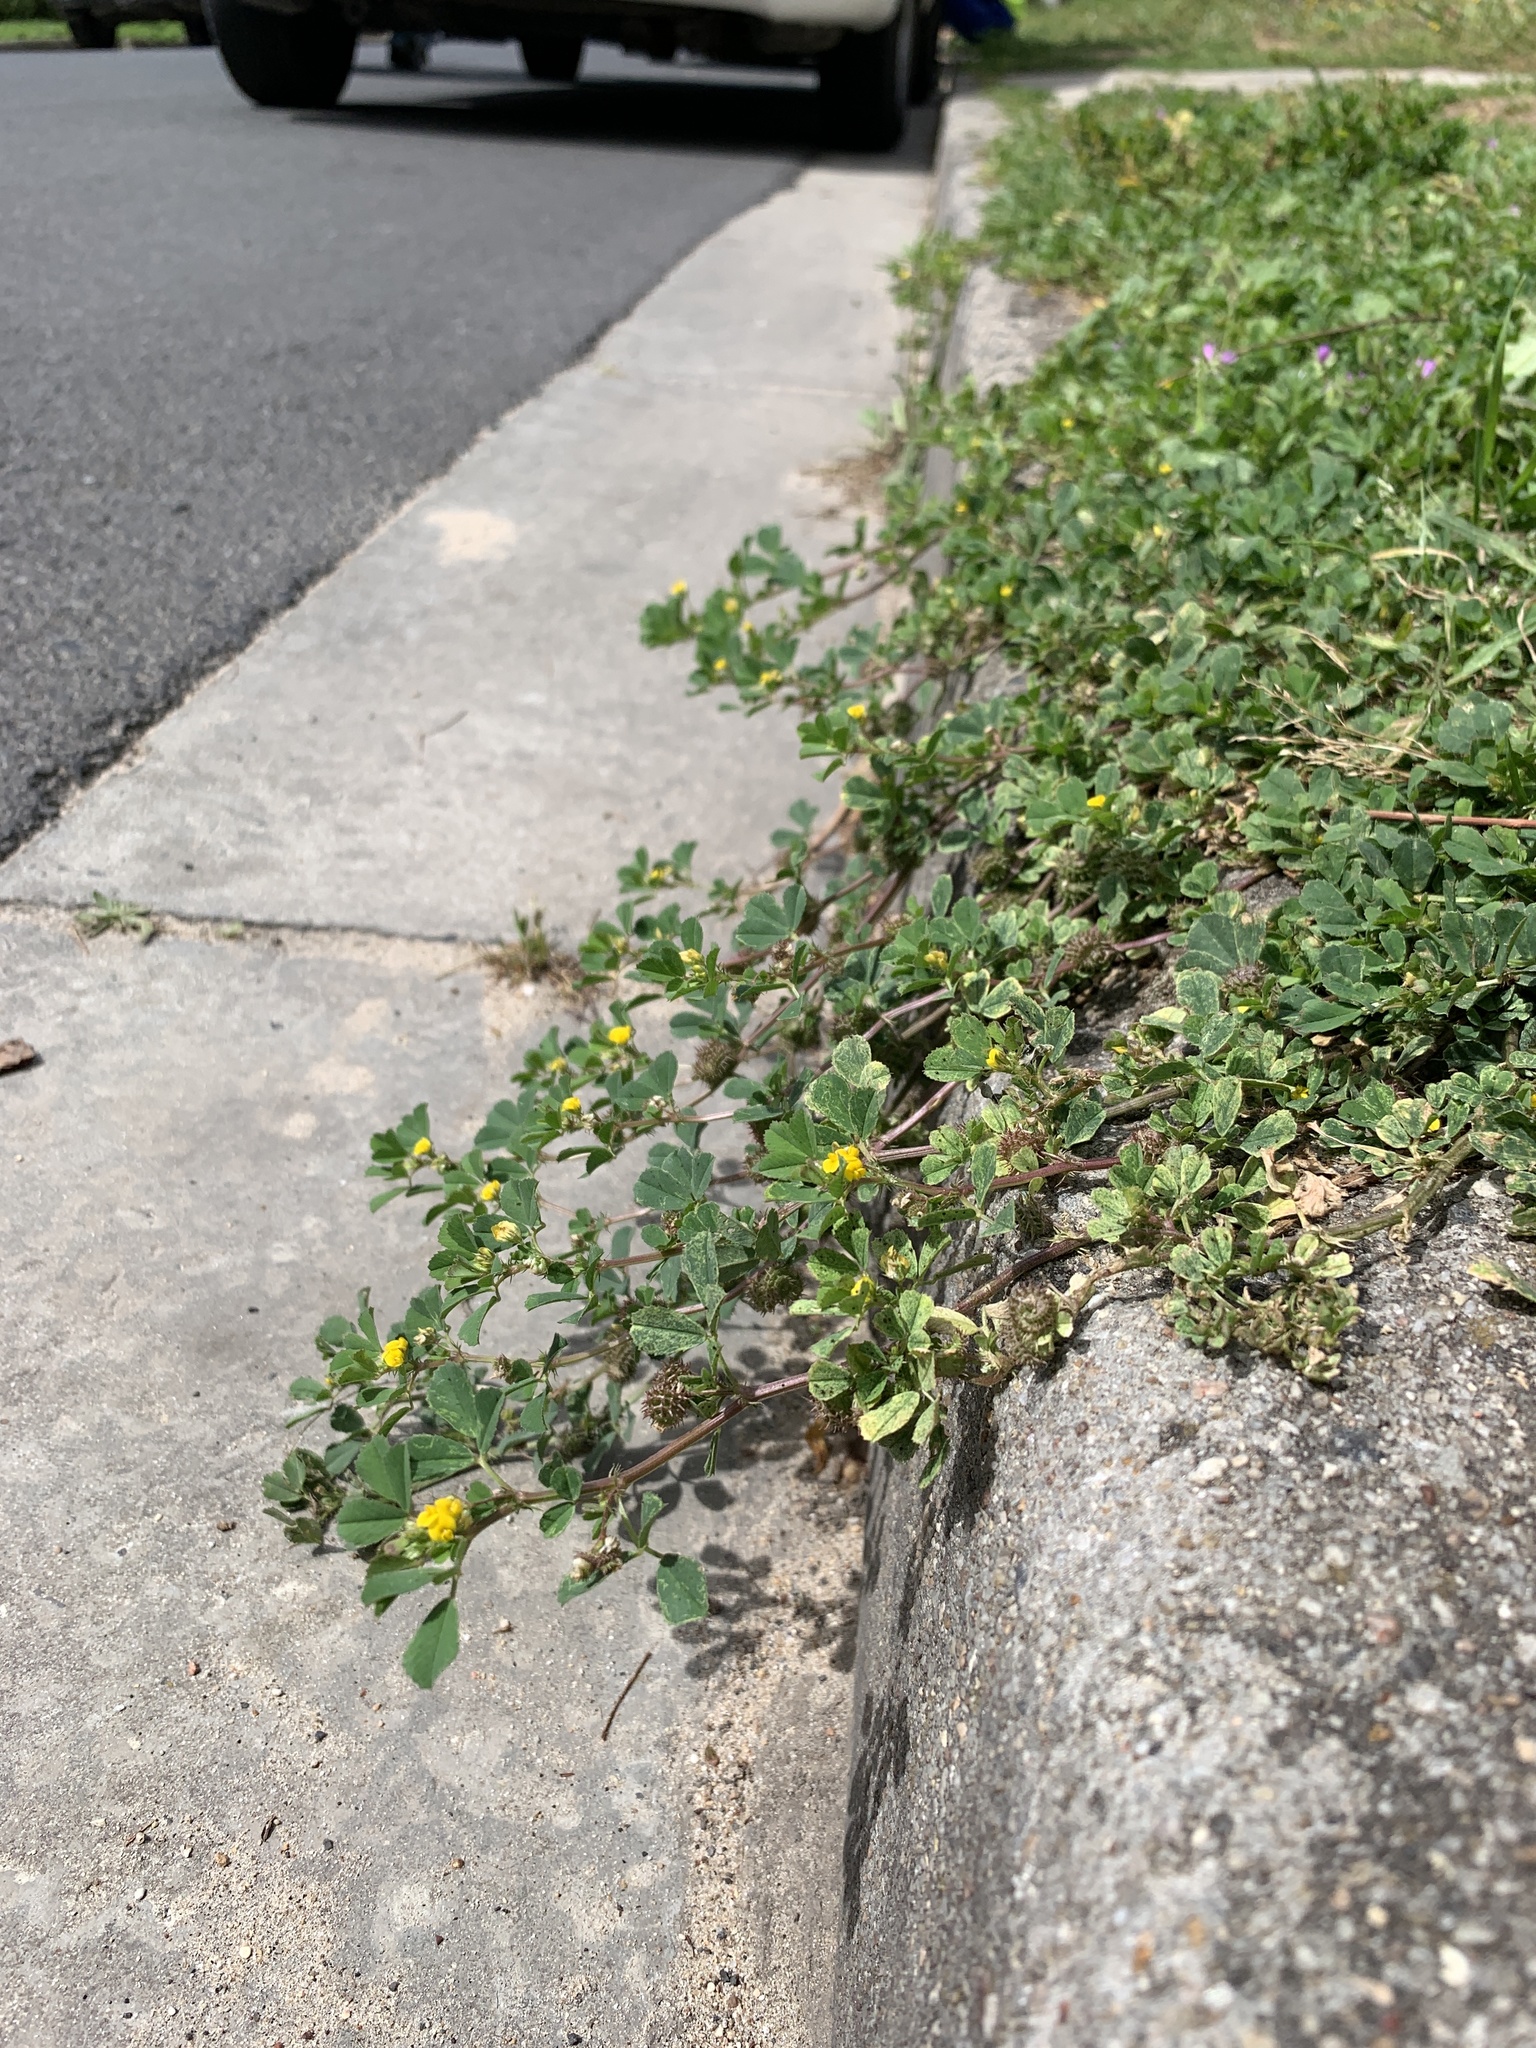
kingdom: Plantae
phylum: Tracheophyta
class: Magnoliopsida
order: Fabales
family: Fabaceae
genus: Medicago
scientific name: Medicago polymorpha
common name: Burclover
